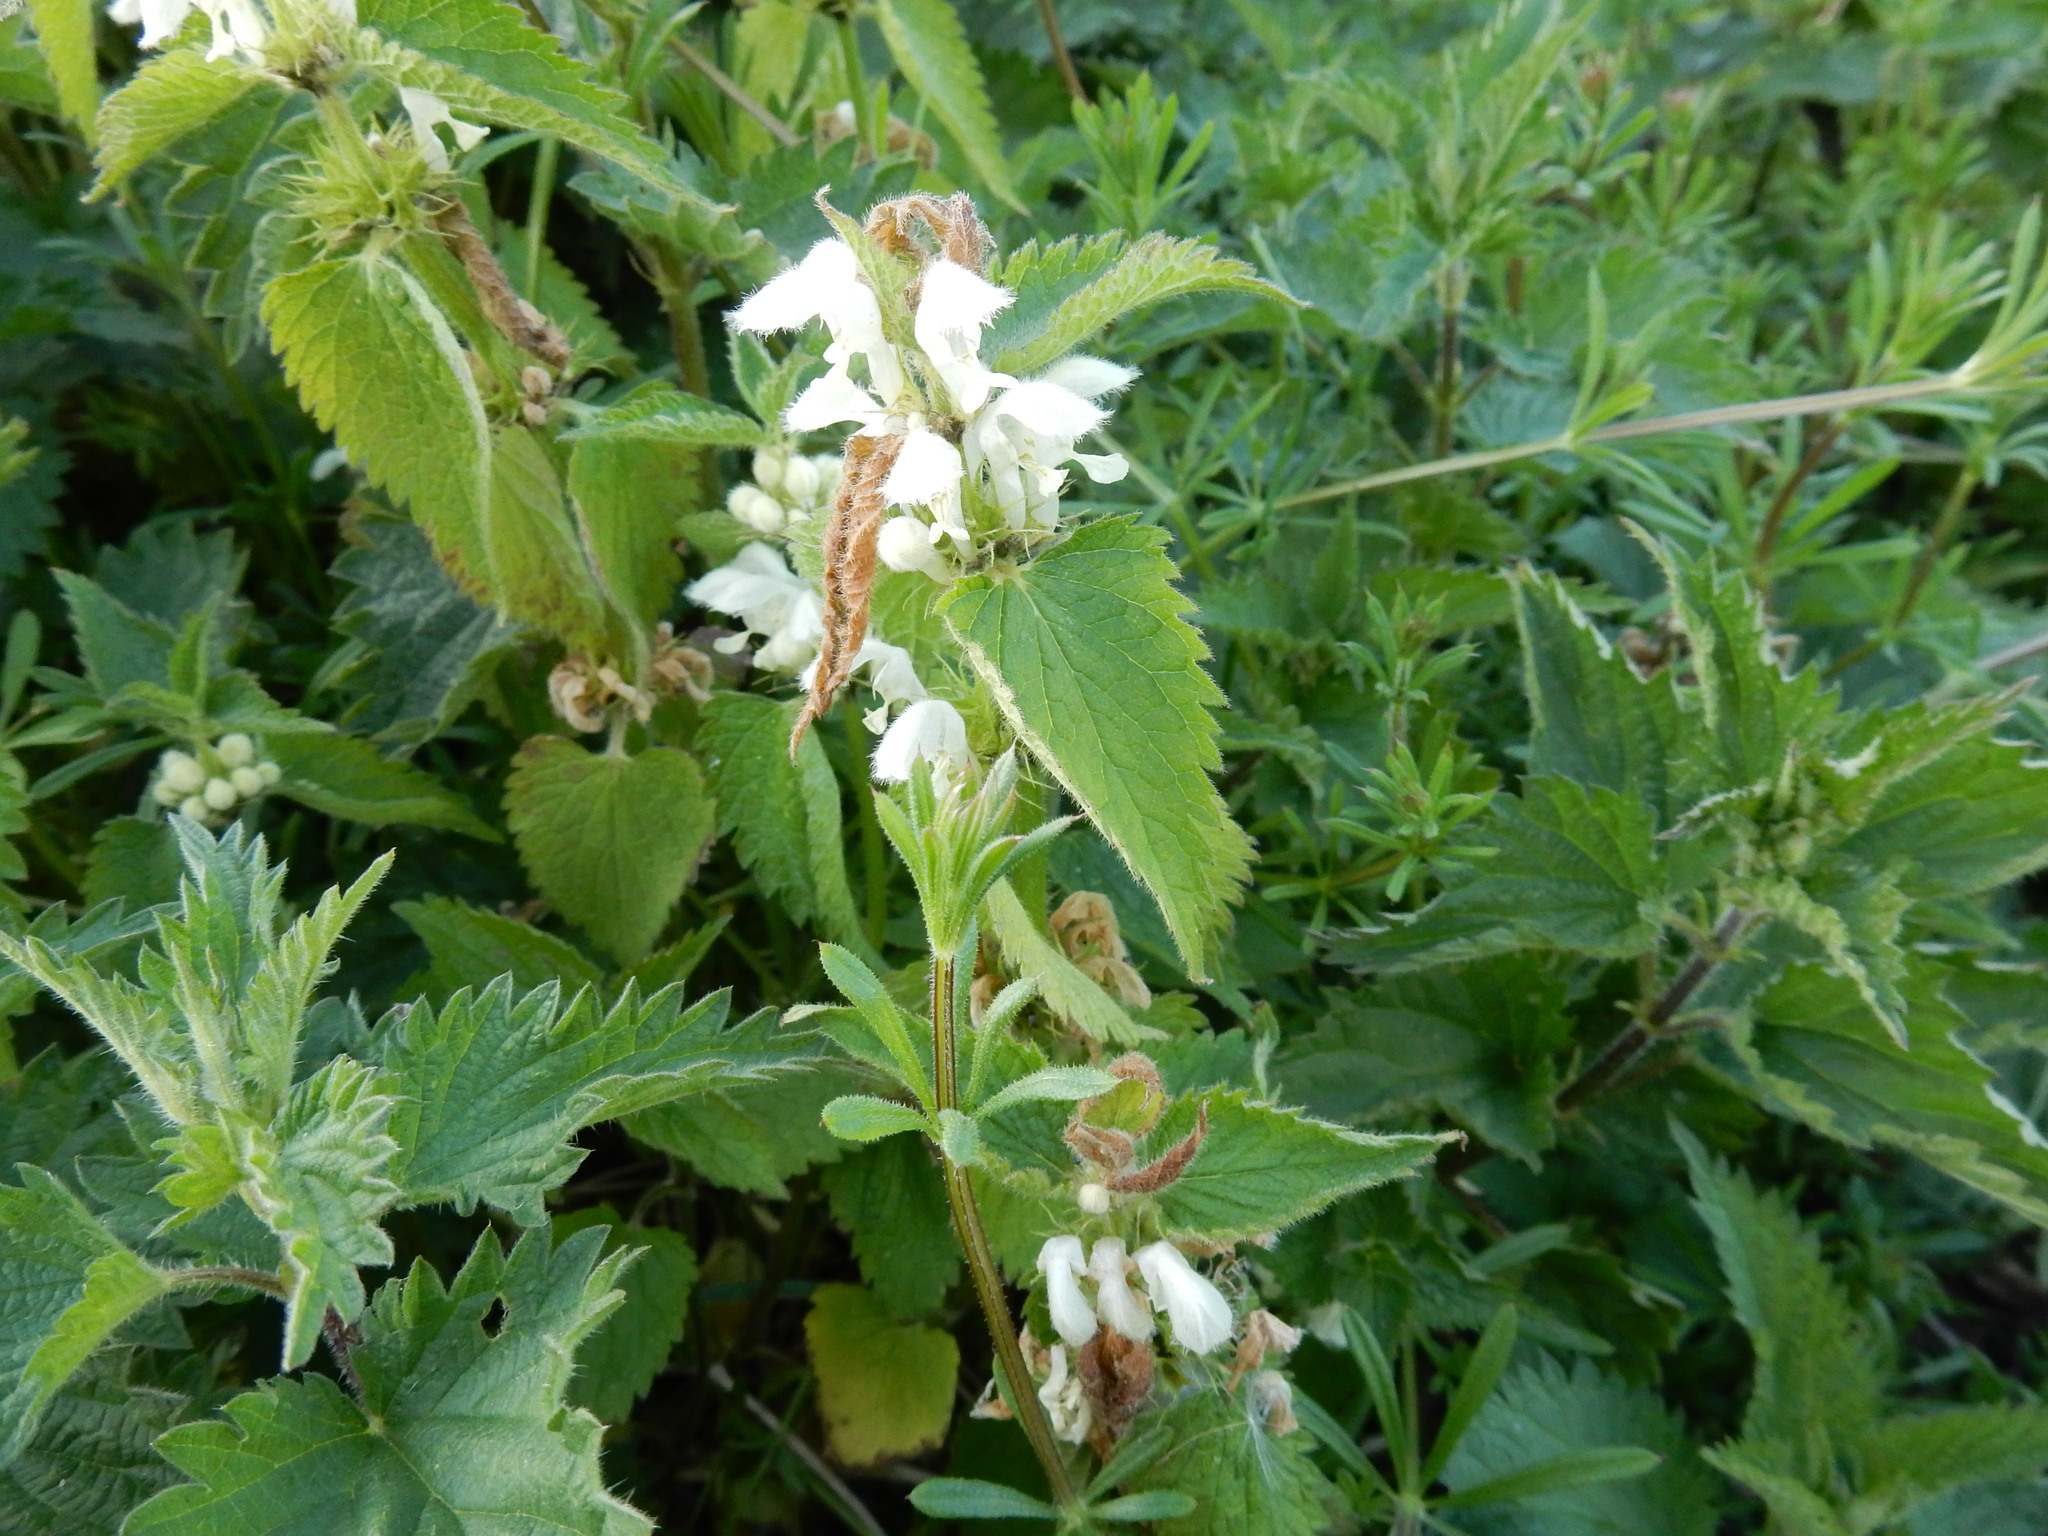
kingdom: Plantae
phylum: Tracheophyta
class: Magnoliopsida
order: Lamiales
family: Lamiaceae
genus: Lamium
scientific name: Lamium album
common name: White dead-nettle
